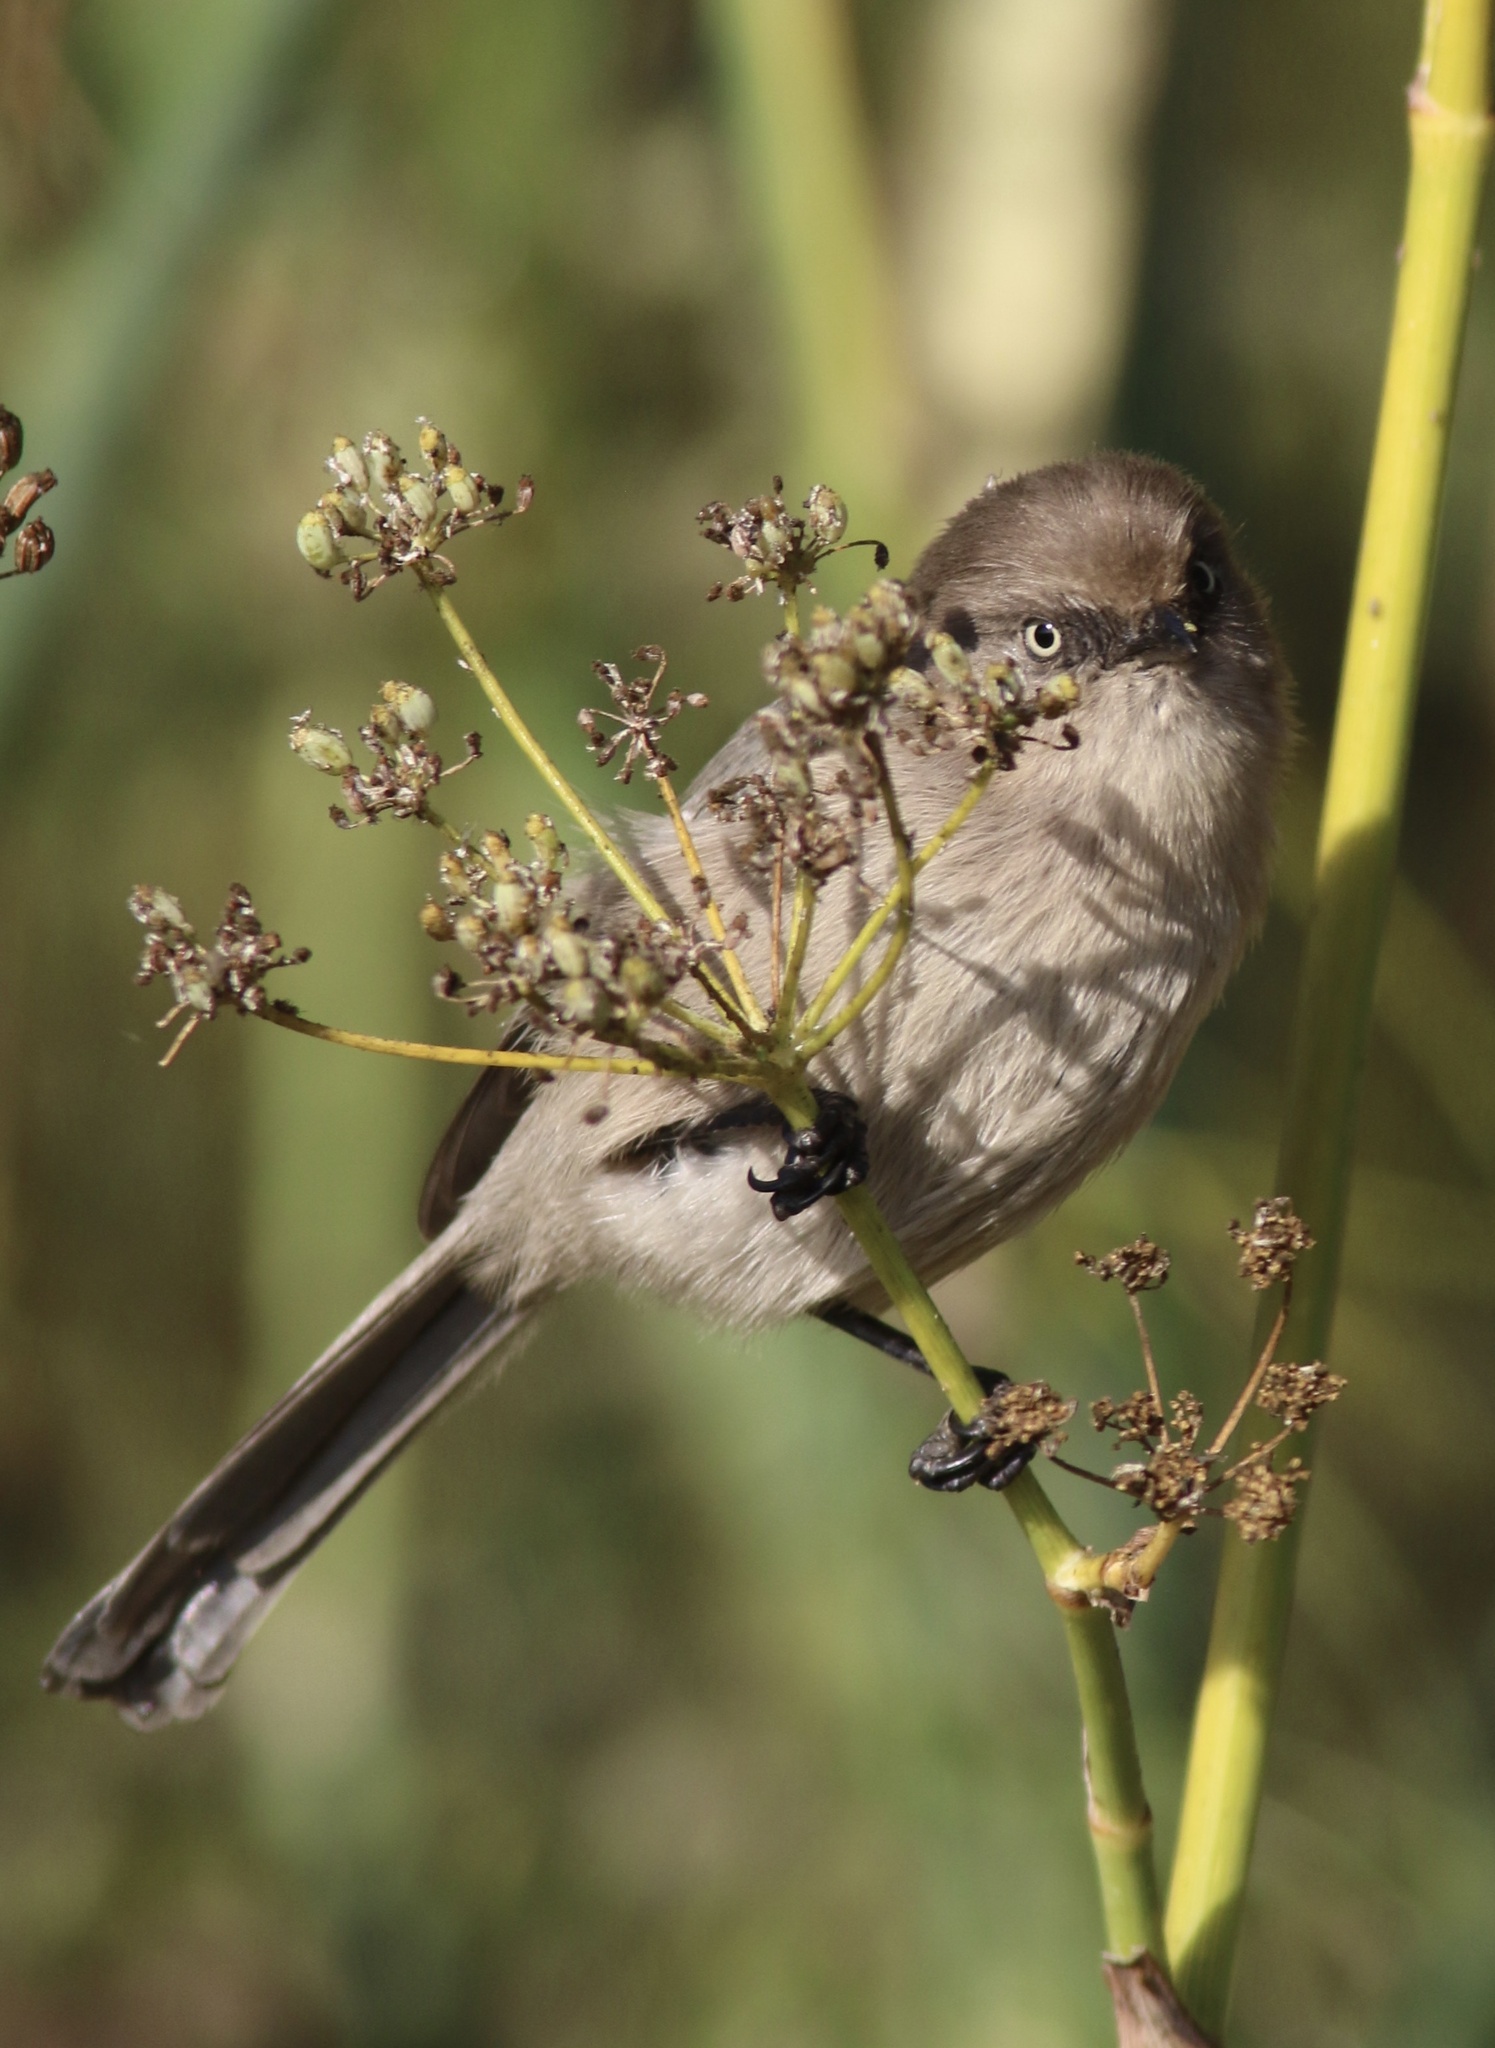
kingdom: Animalia
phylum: Chordata
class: Aves
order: Passeriformes
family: Aegithalidae
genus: Psaltriparus
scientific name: Psaltriparus minimus
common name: American bushtit
